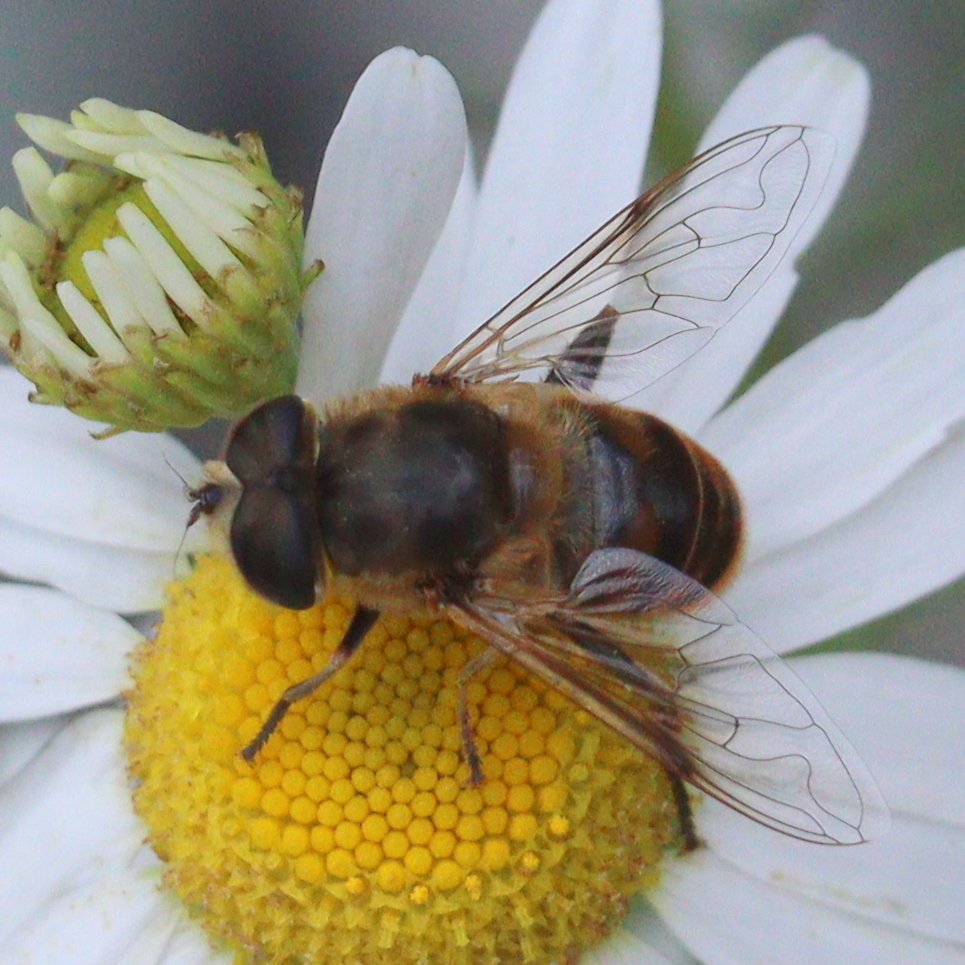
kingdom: Animalia
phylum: Arthropoda
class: Insecta
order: Diptera
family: Syrphidae
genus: Eristalis
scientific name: Eristalis tenax
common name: Drone fly
